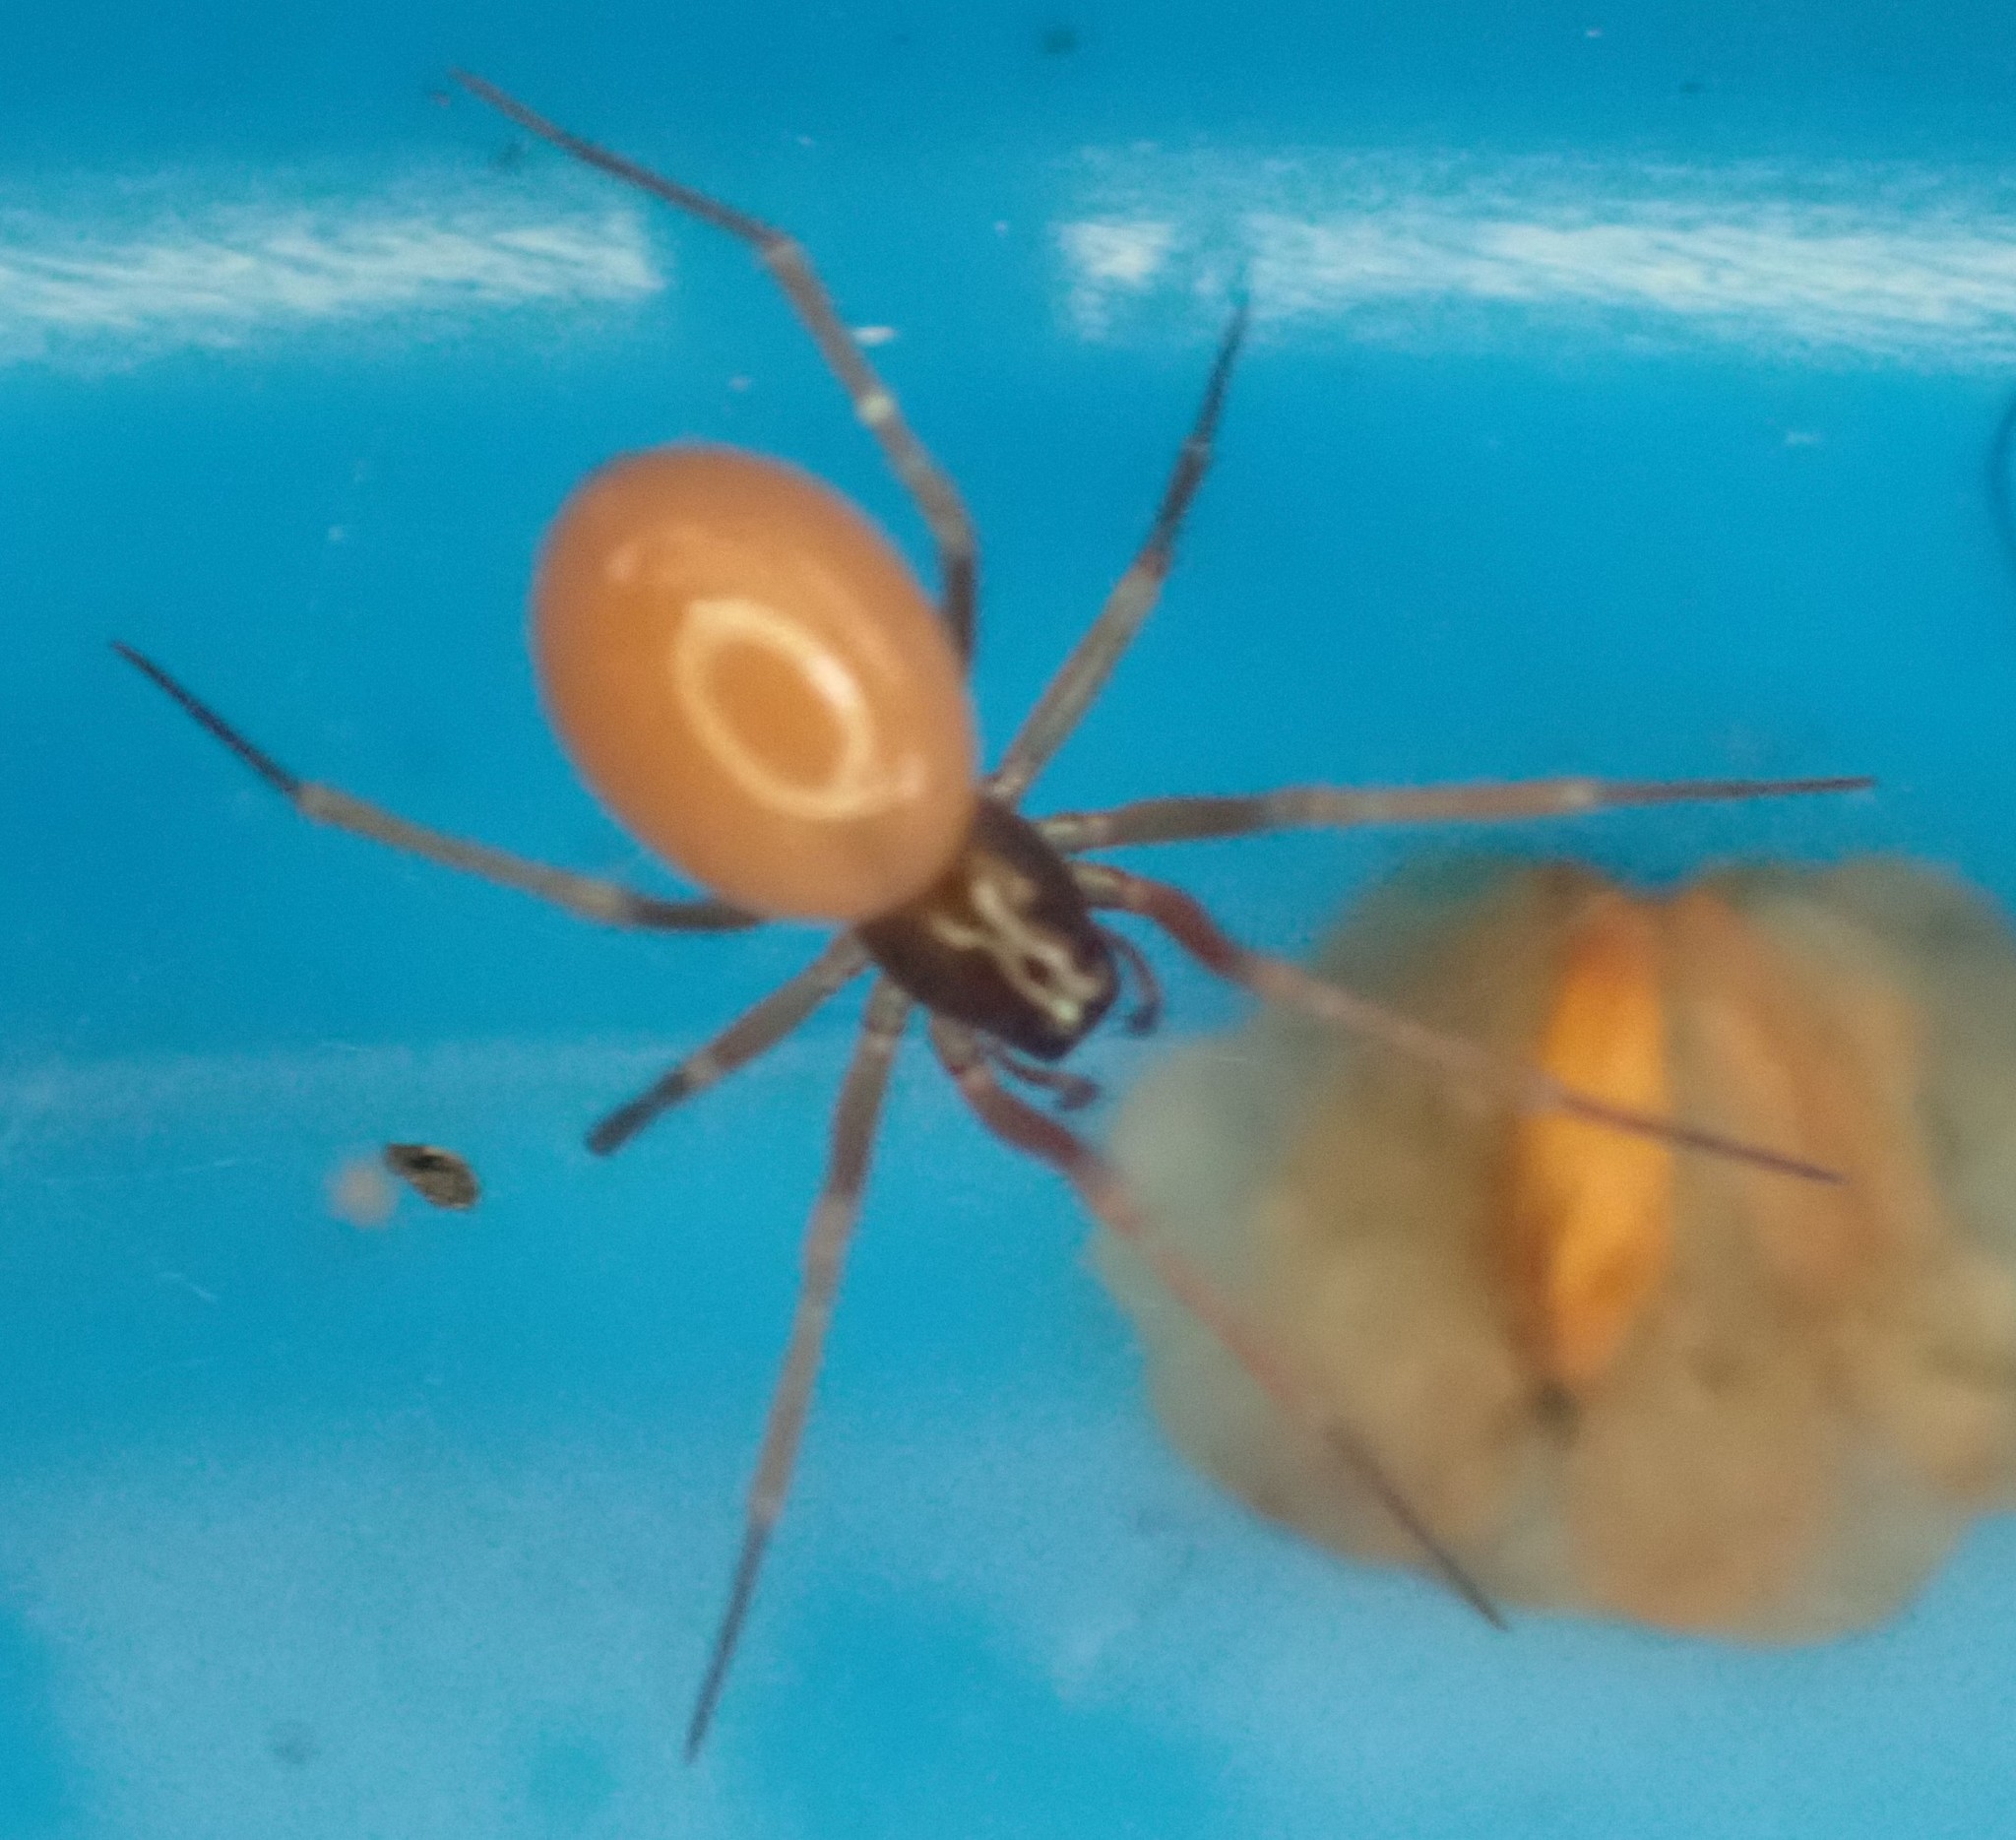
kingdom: Animalia
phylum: Arthropoda
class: Arachnida
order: Araneae
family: Linyphiidae
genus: Ostearius
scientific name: Ostearius melanopygius
